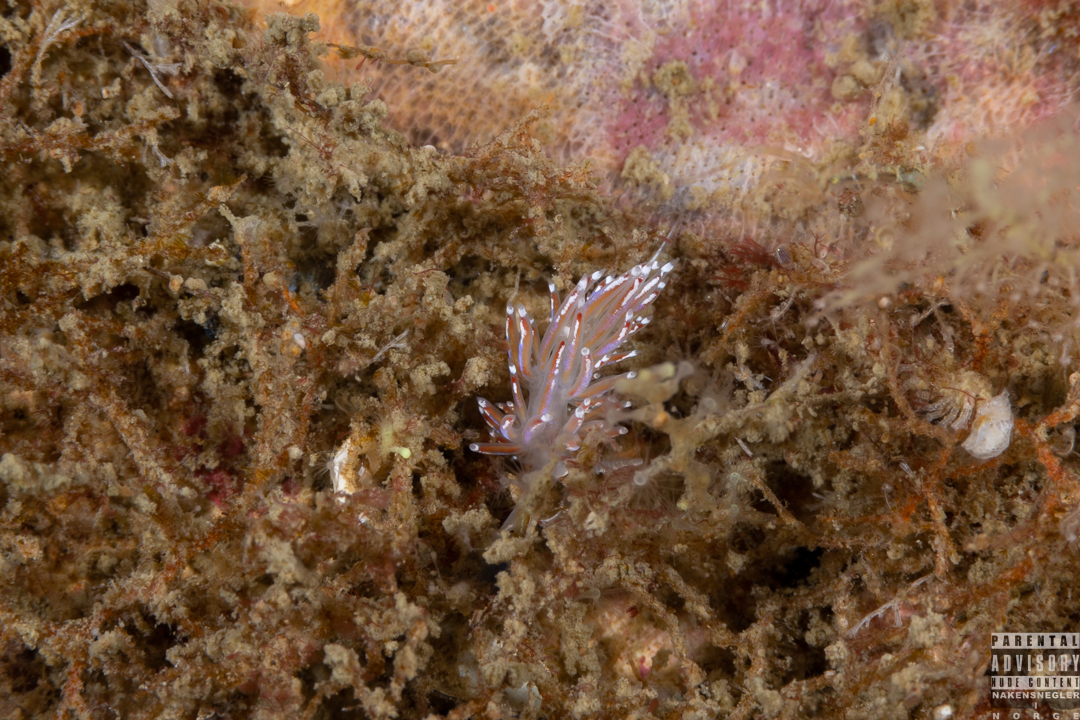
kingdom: Animalia
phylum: Mollusca
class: Gastropoda
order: Nudibranchia
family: Facelinidae
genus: Facelina
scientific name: Facelina auriculata
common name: Slender facelina
